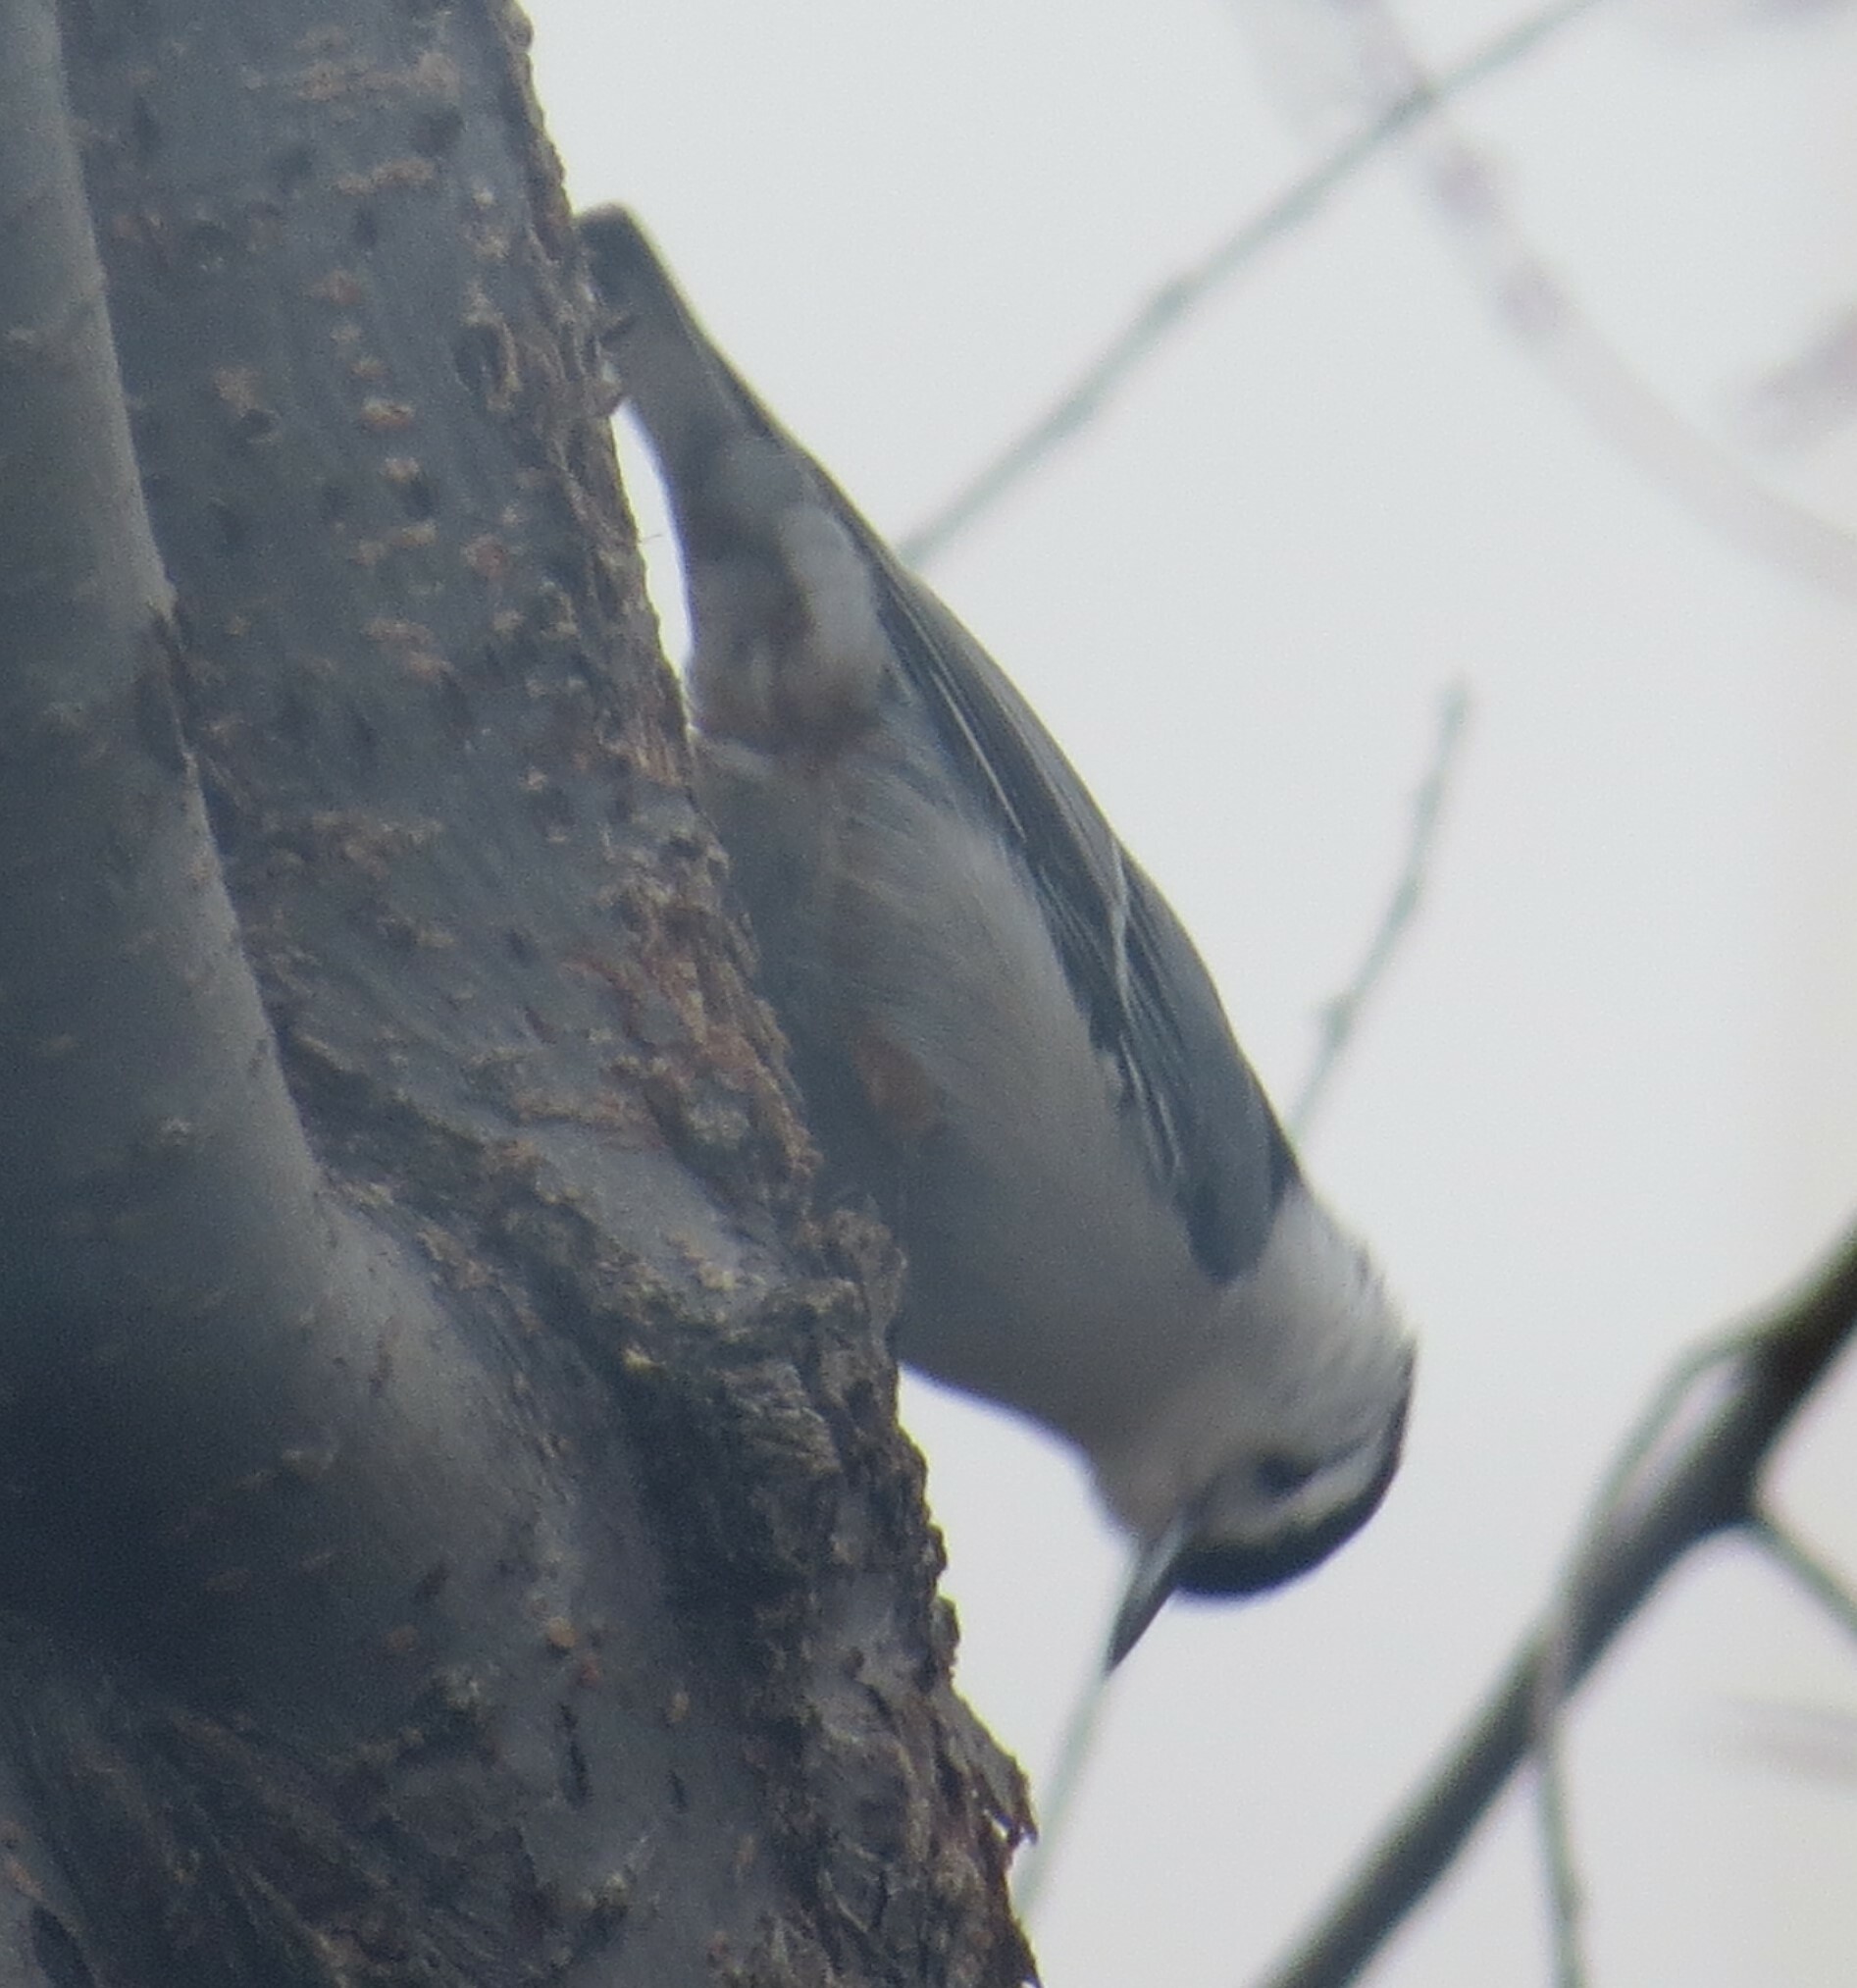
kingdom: Animalia
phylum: Chordata
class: Aves
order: Passeriformes
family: Sittidae
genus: Sitta
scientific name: Sitta carolinensis
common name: White-breasted nuthatch
